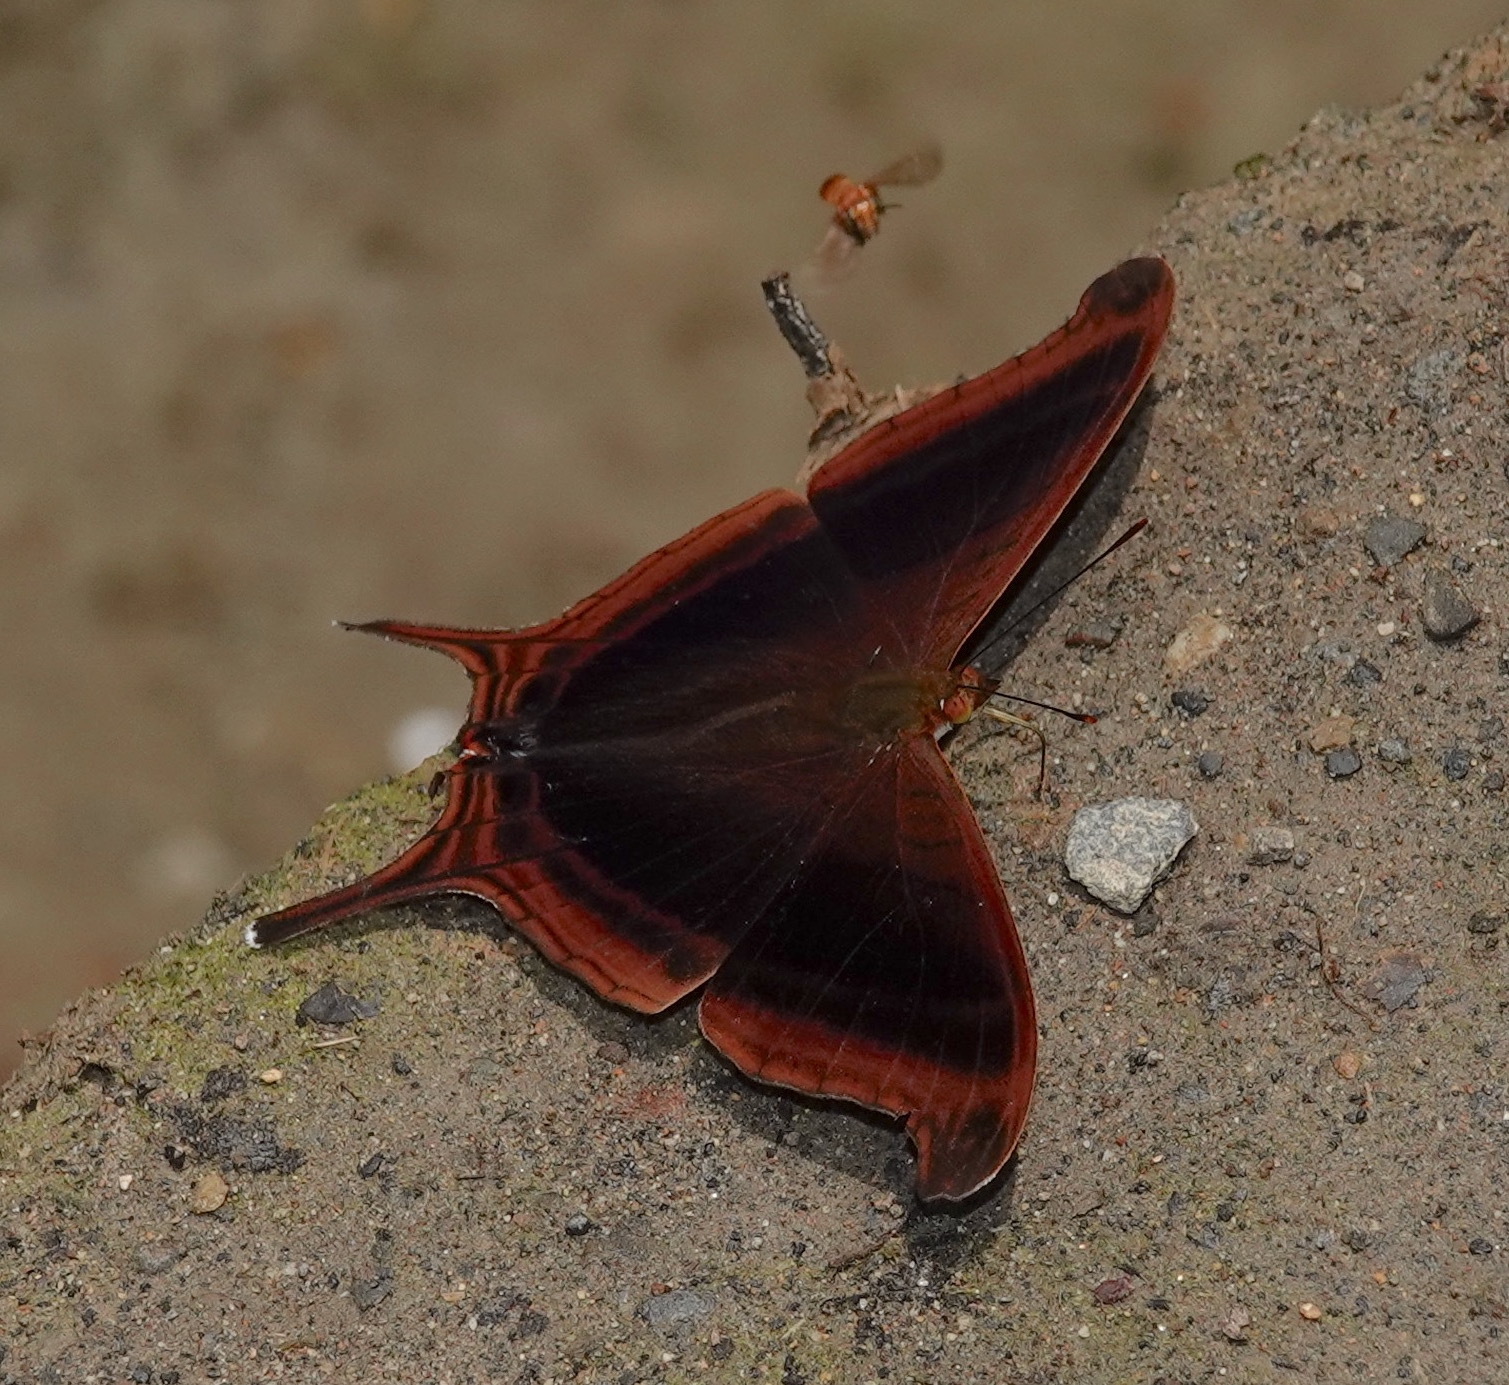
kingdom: Animalia
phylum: Arthropoda
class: Insecta
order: Lepidoptera
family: Nymphalidae
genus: Marpesia
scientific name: Marpesia zerynthia
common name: Waiter daggerwing
